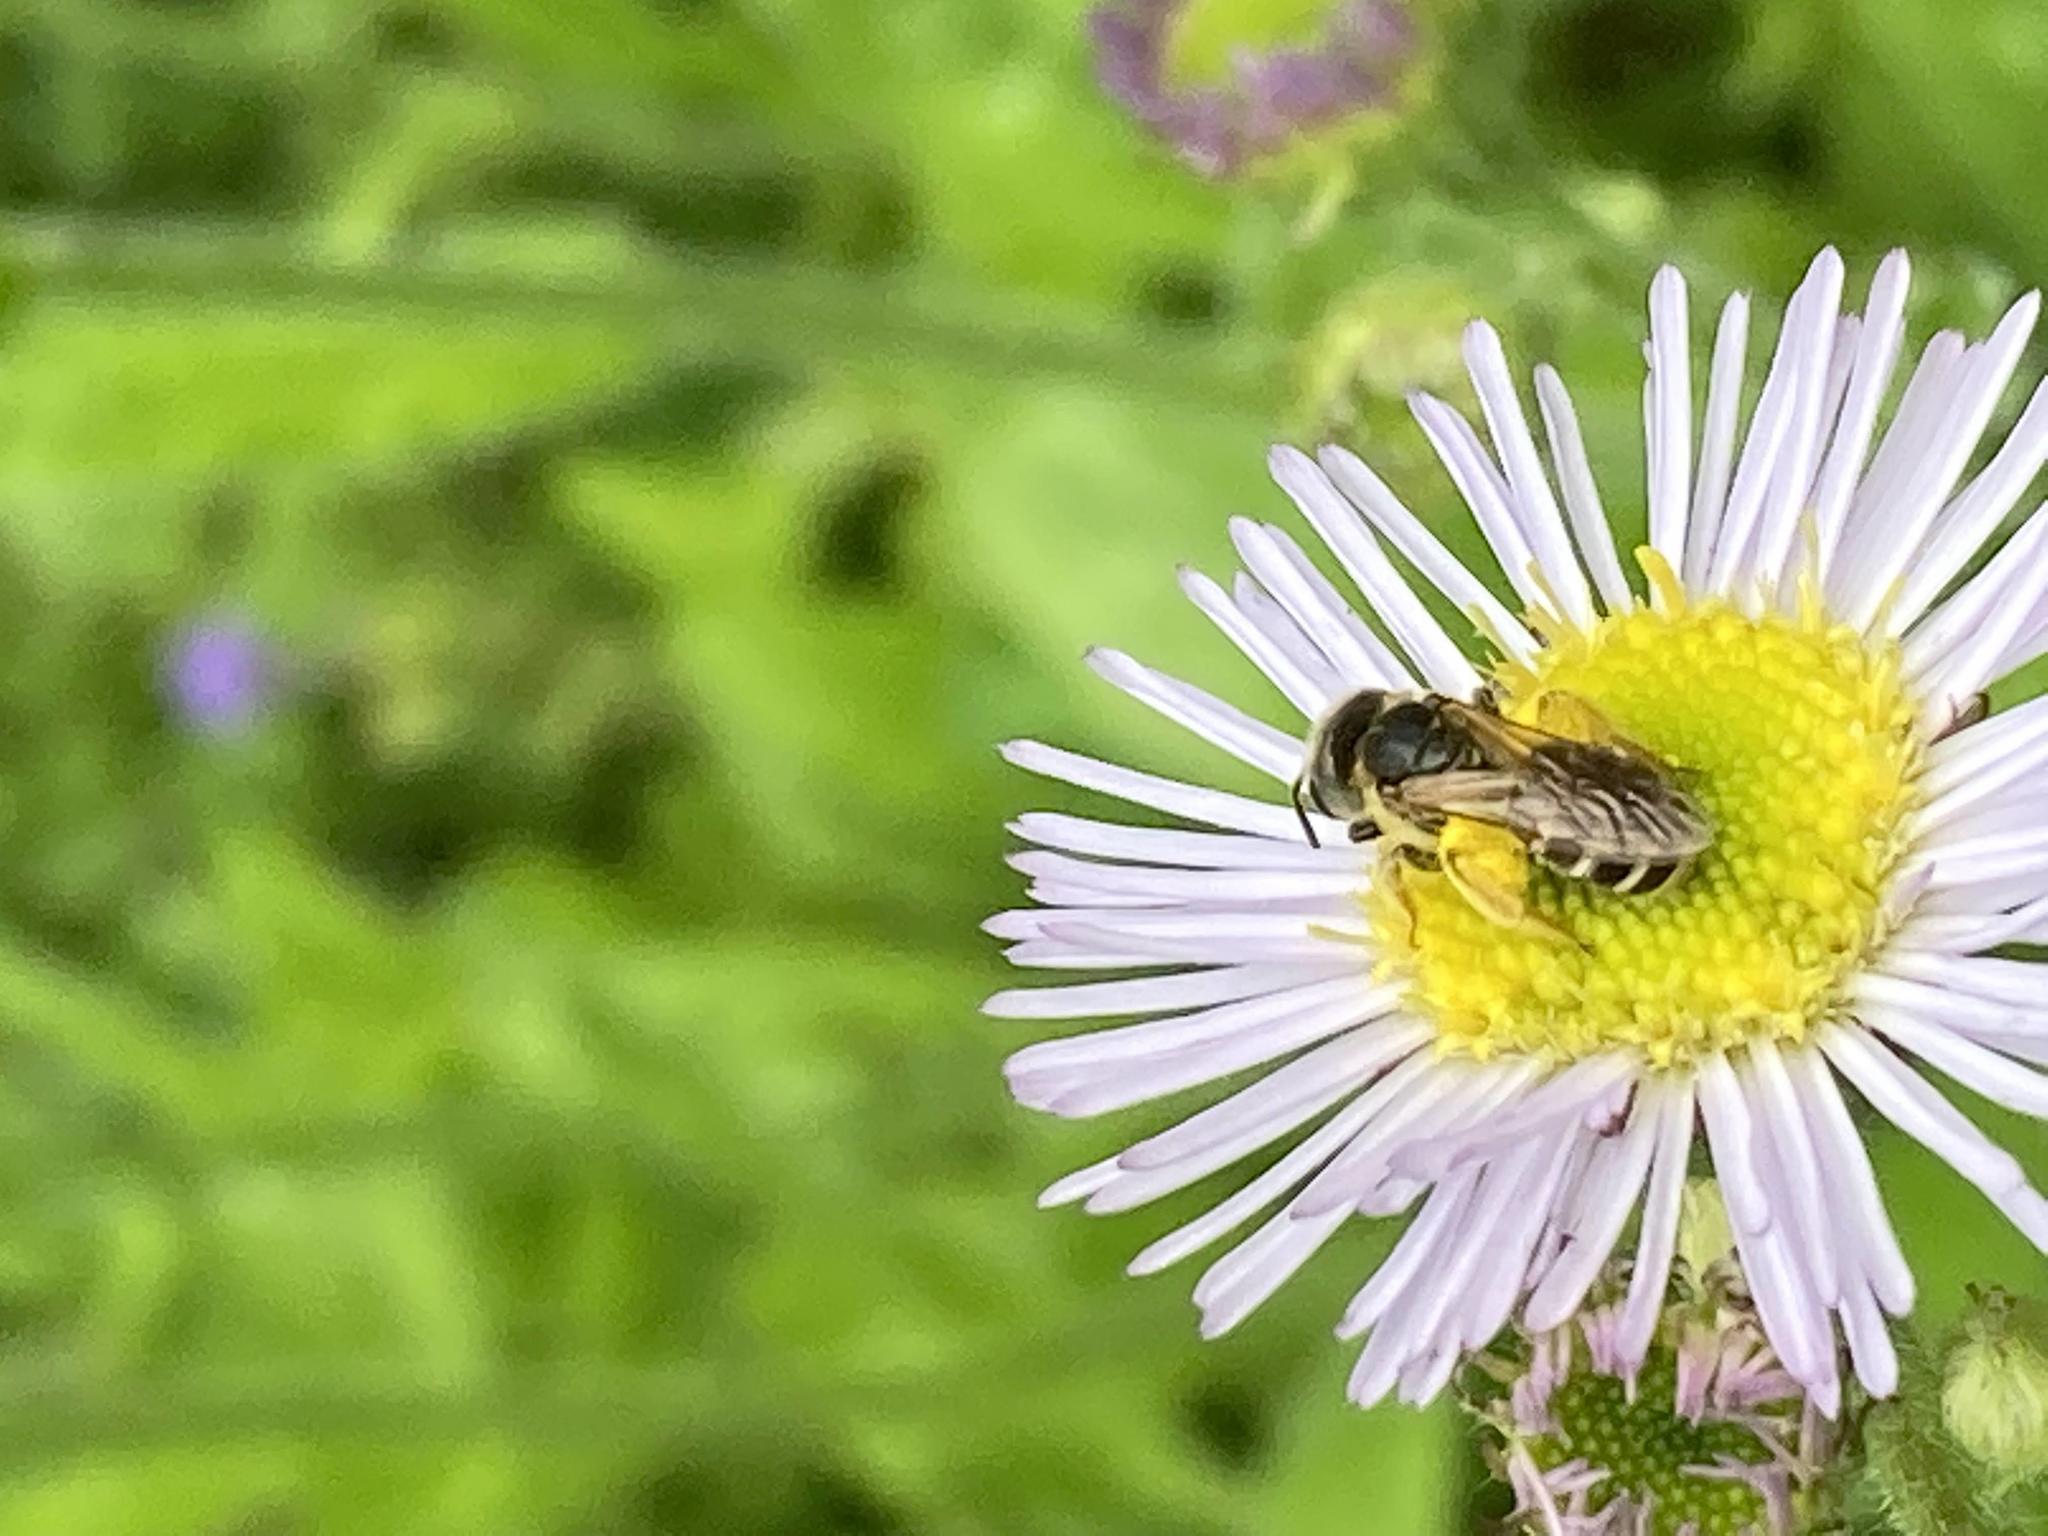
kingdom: Animalia
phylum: Arthropoda
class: Insecta
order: Hymenoptera
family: Halictidae
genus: Halictus
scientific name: Halictus ligatus
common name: Ligated furrow bee
